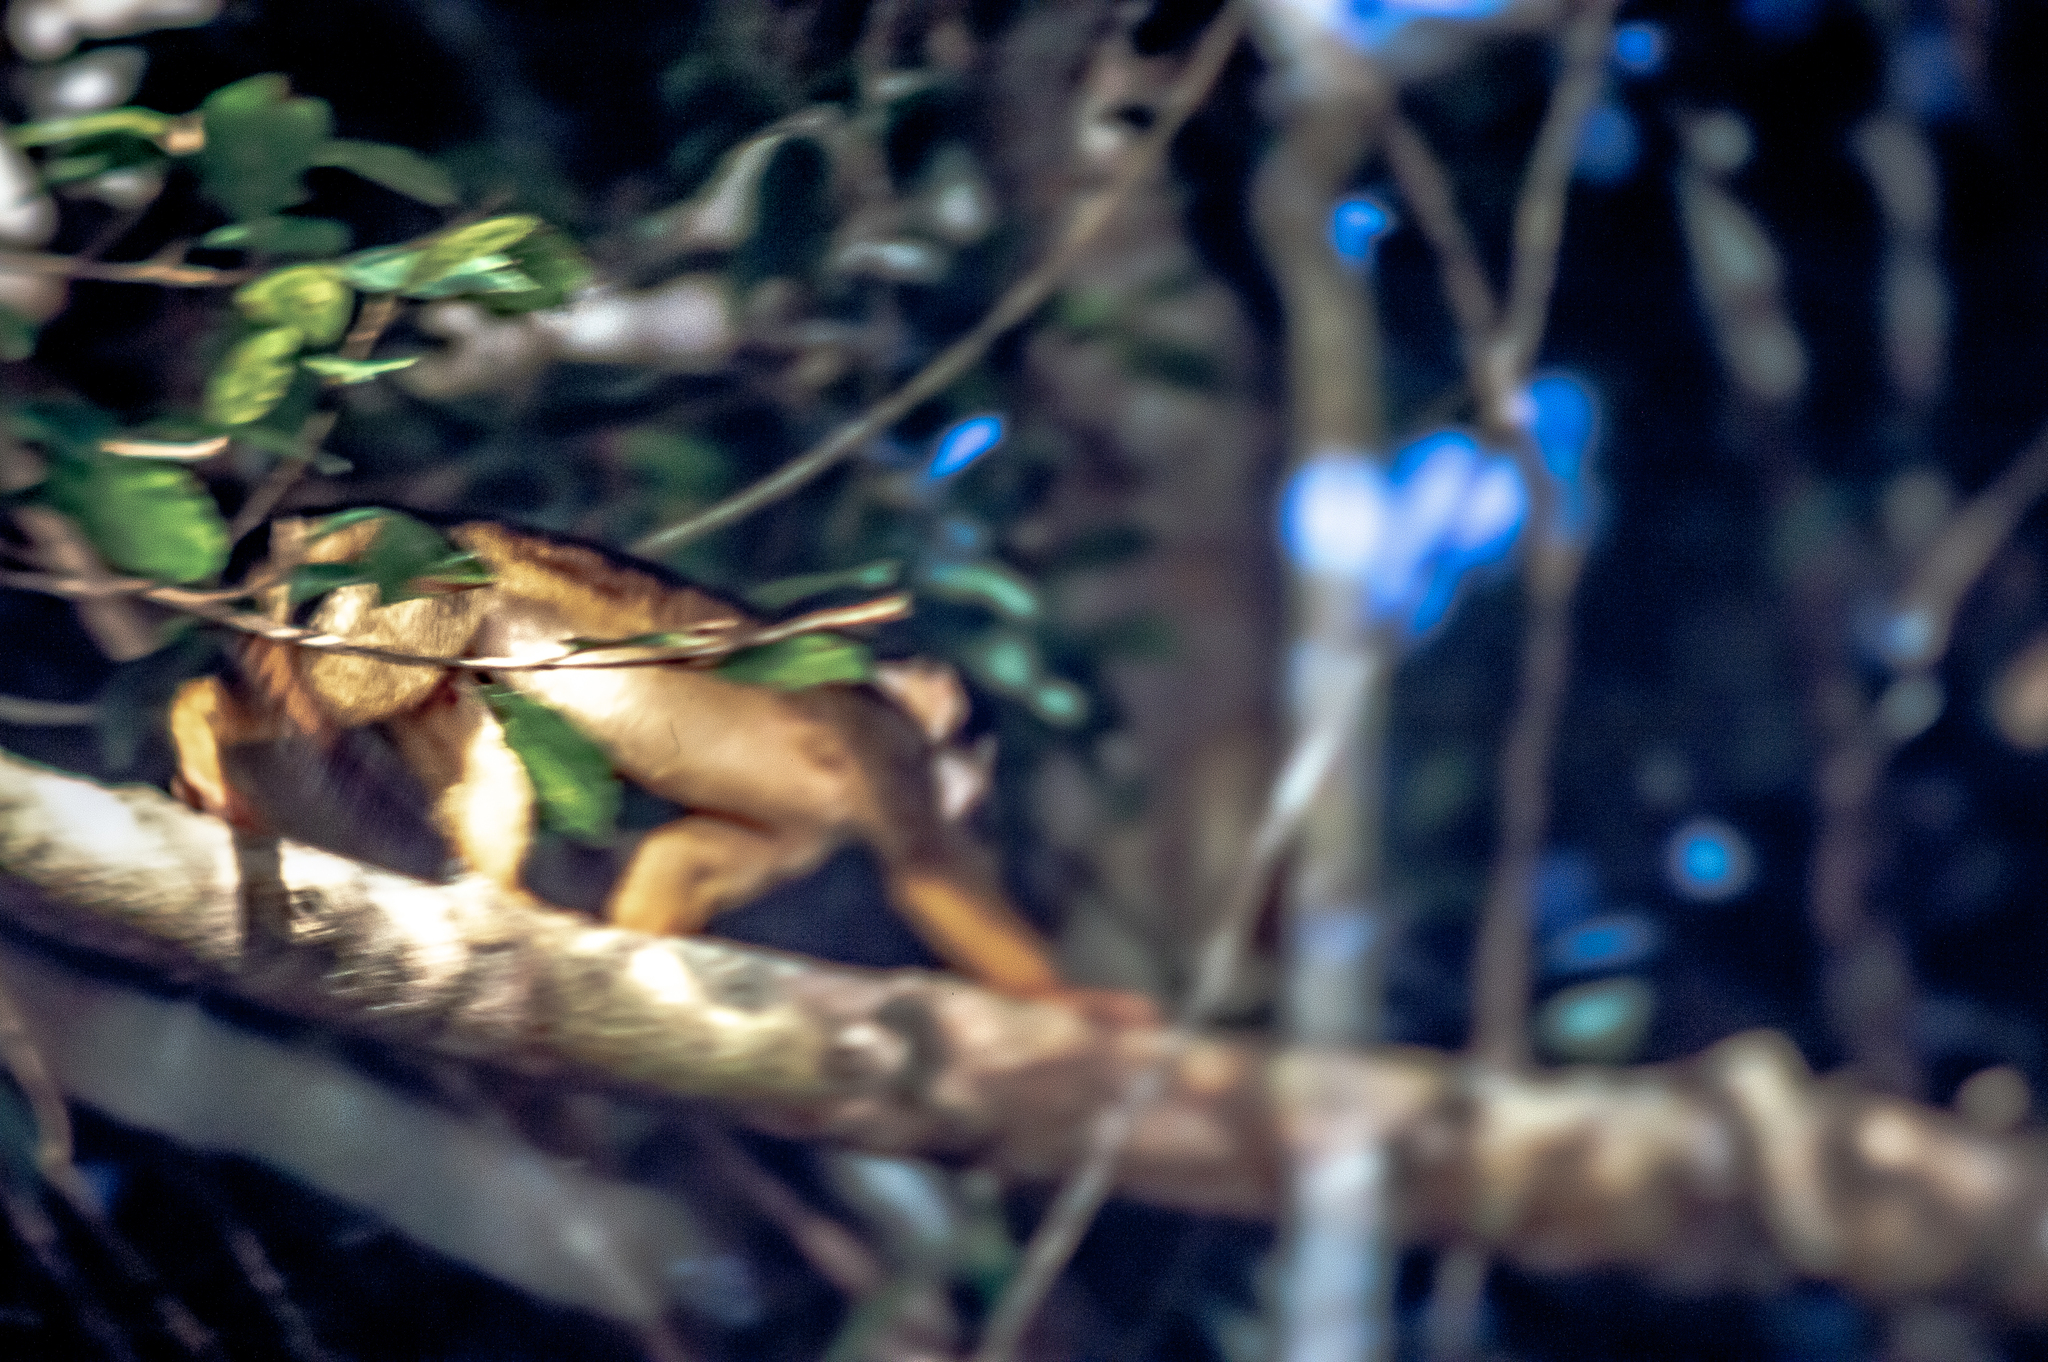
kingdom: Animalia
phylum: Chordata
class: Mammalia
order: Primates
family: Cebidae
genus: Saimiri
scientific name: Saimiri vanzolinii
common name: Black squirrel monkey
